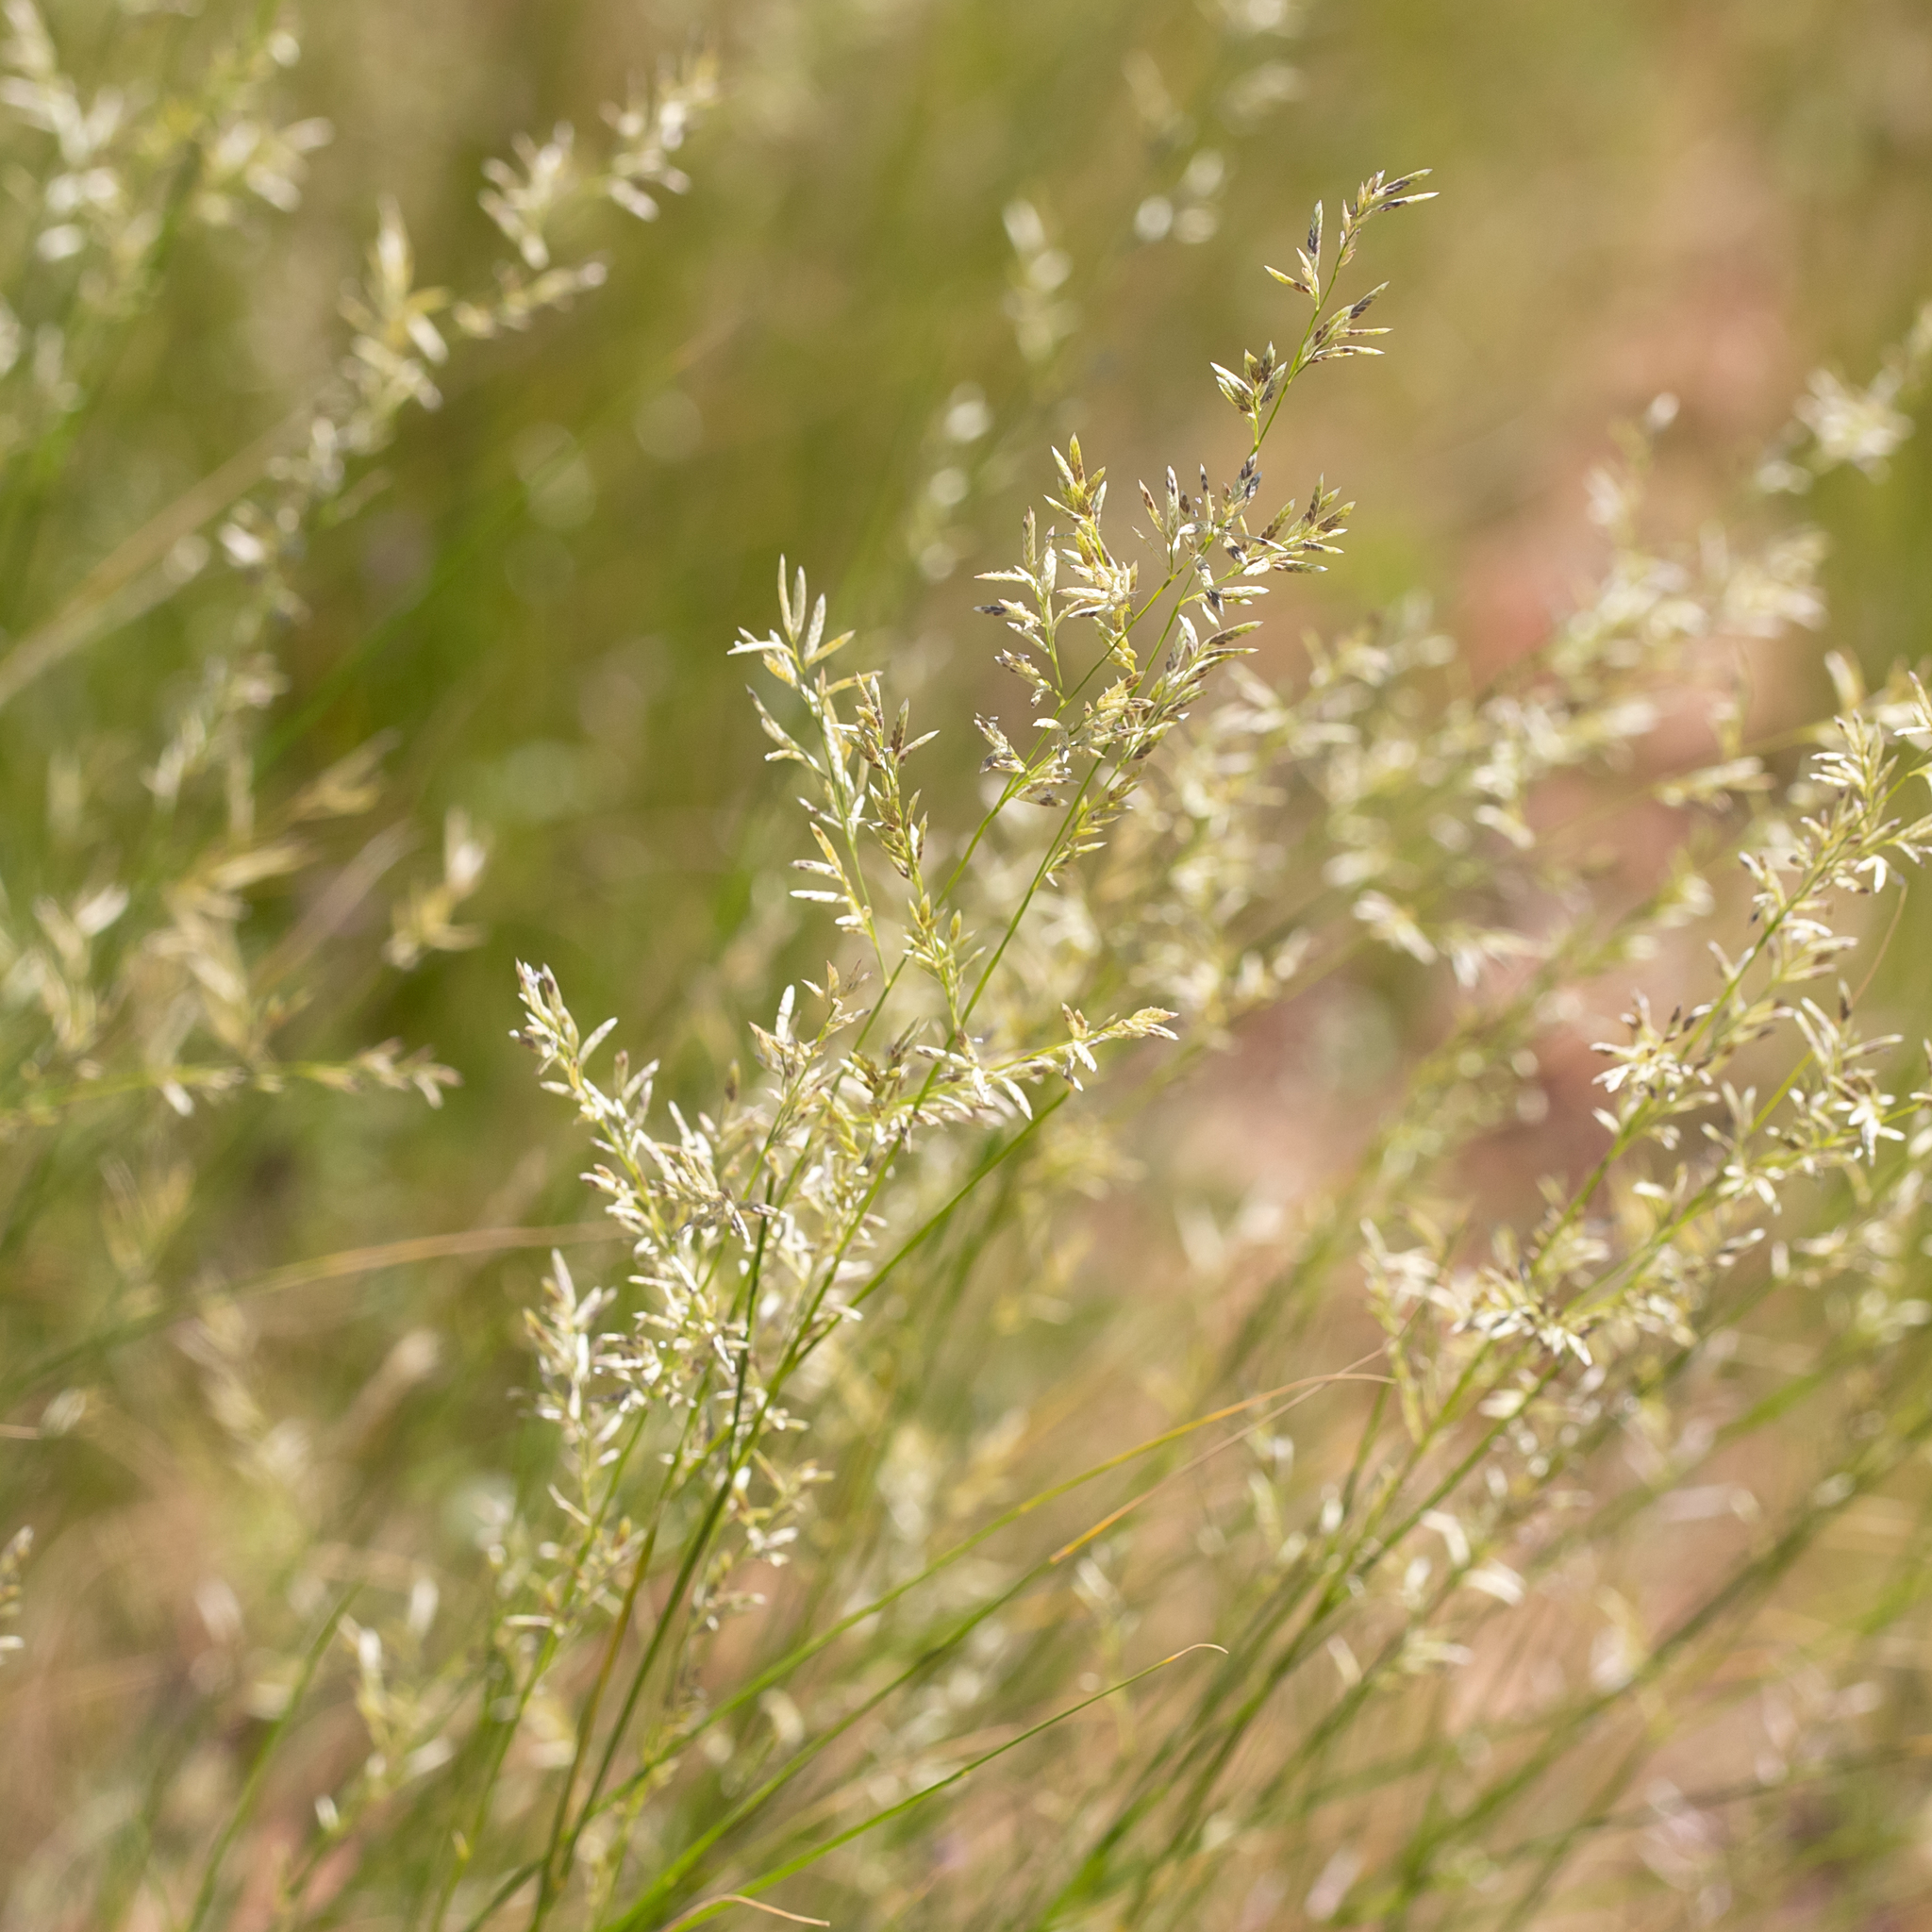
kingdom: Plantae
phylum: Tracheophyta
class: Liliopsida
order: Poales
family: Poaceae
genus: Eragrostis
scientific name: Eragrostis setifolia
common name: Bristleleaf lovegrass
